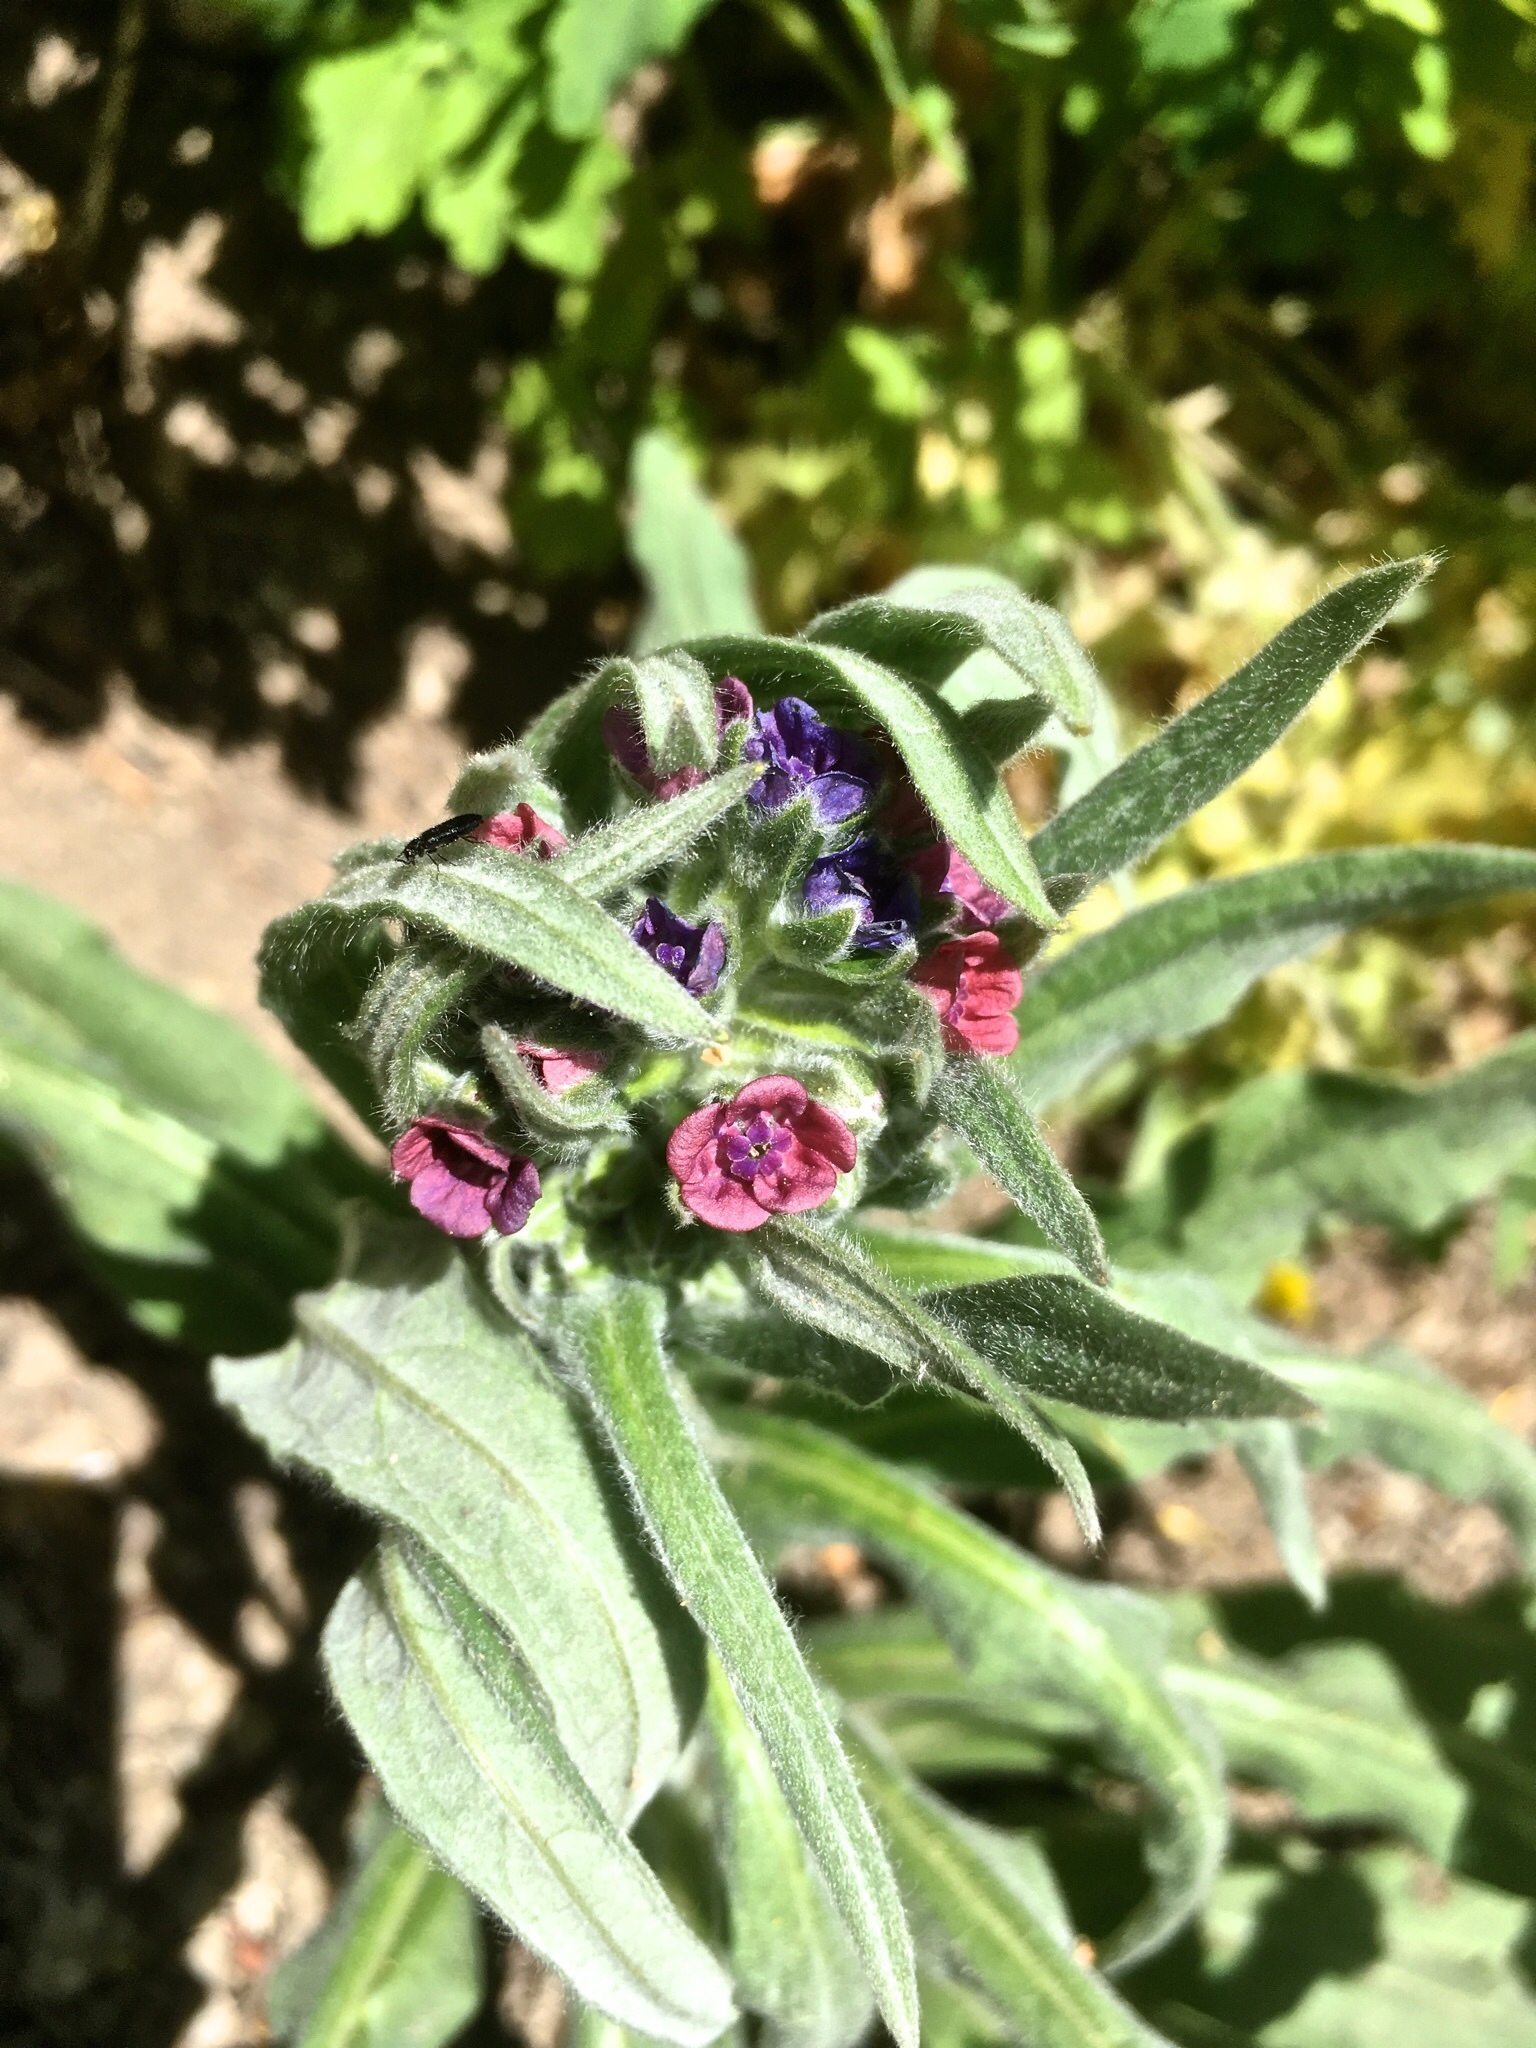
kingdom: Plantae
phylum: Tracheophyta
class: Magnoliopsida
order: Boraginales
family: Boraginaceae
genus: Cynoglossum
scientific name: Cynoglossum officinale
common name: Hound's-tongue
